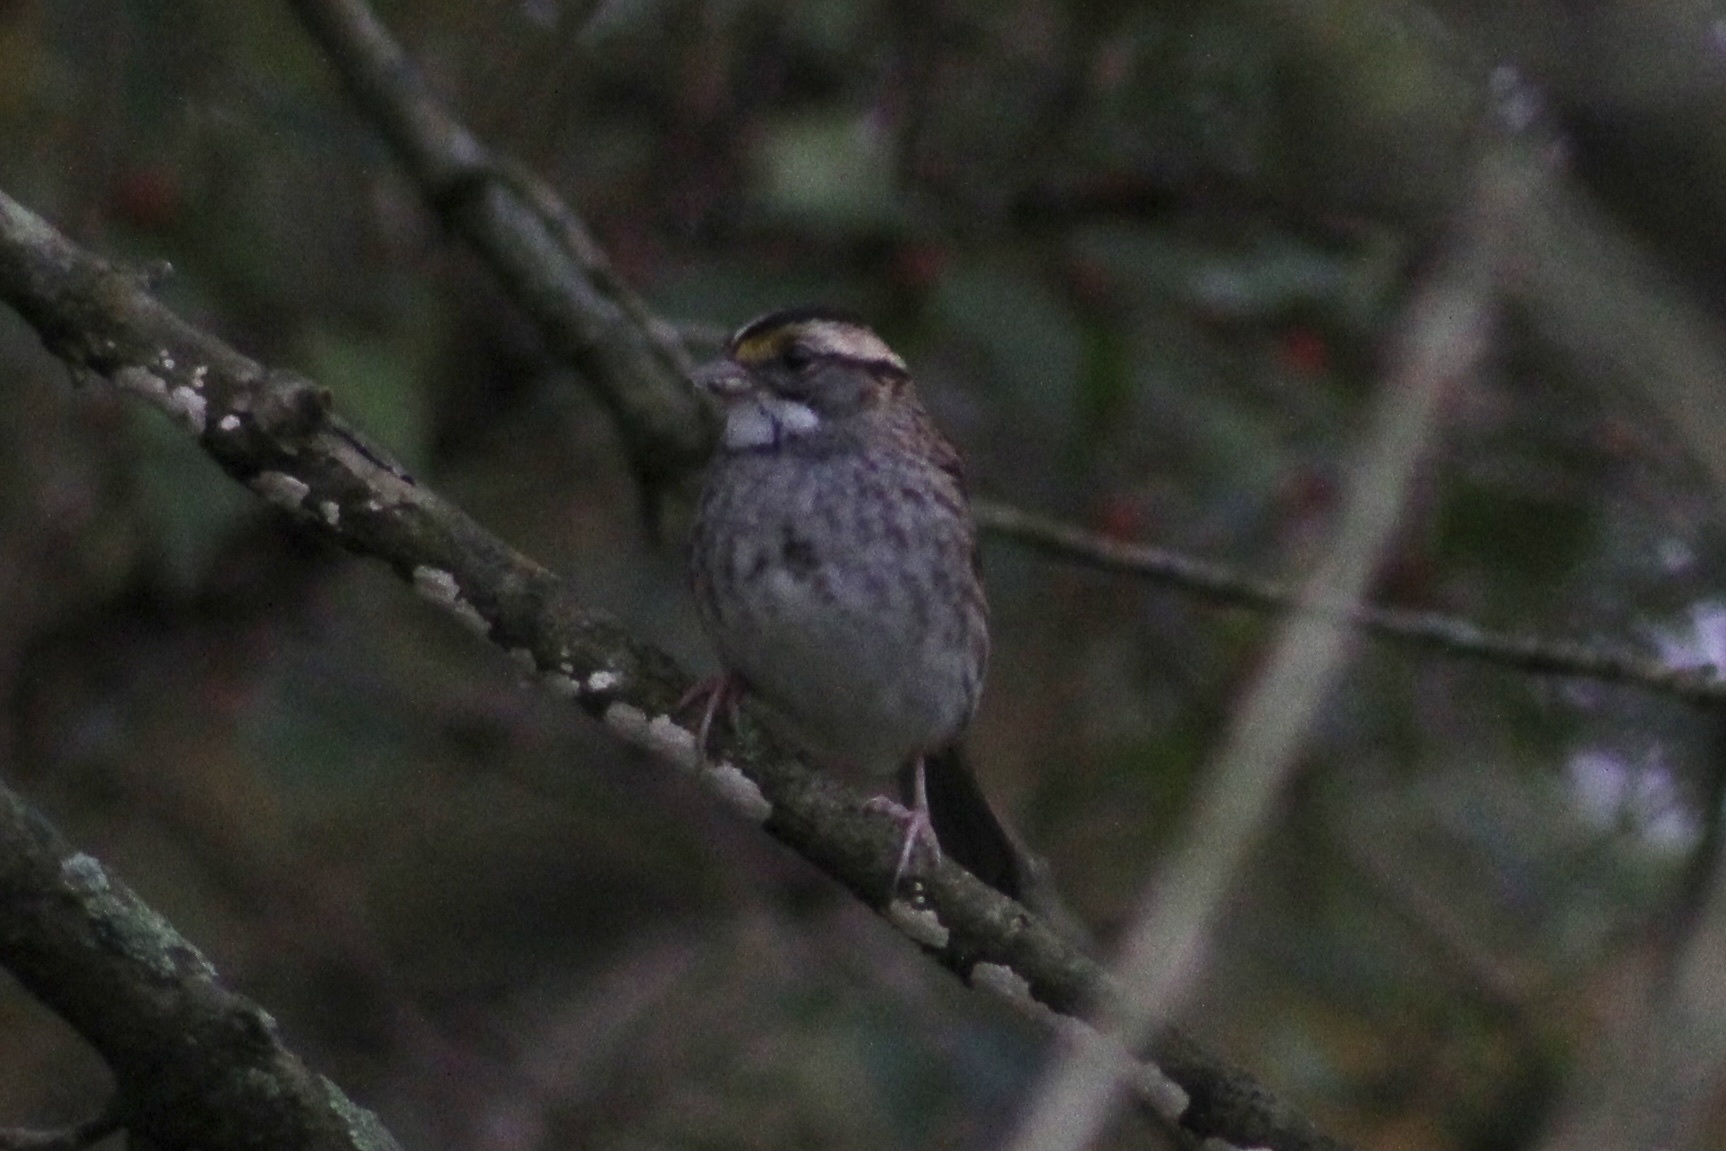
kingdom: Animalia
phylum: Chordata
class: Aves
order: Passeriformes
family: Passerellidae
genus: Zonotrichia
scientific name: Zonotrichia albicollis
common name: White-throated sparrow
